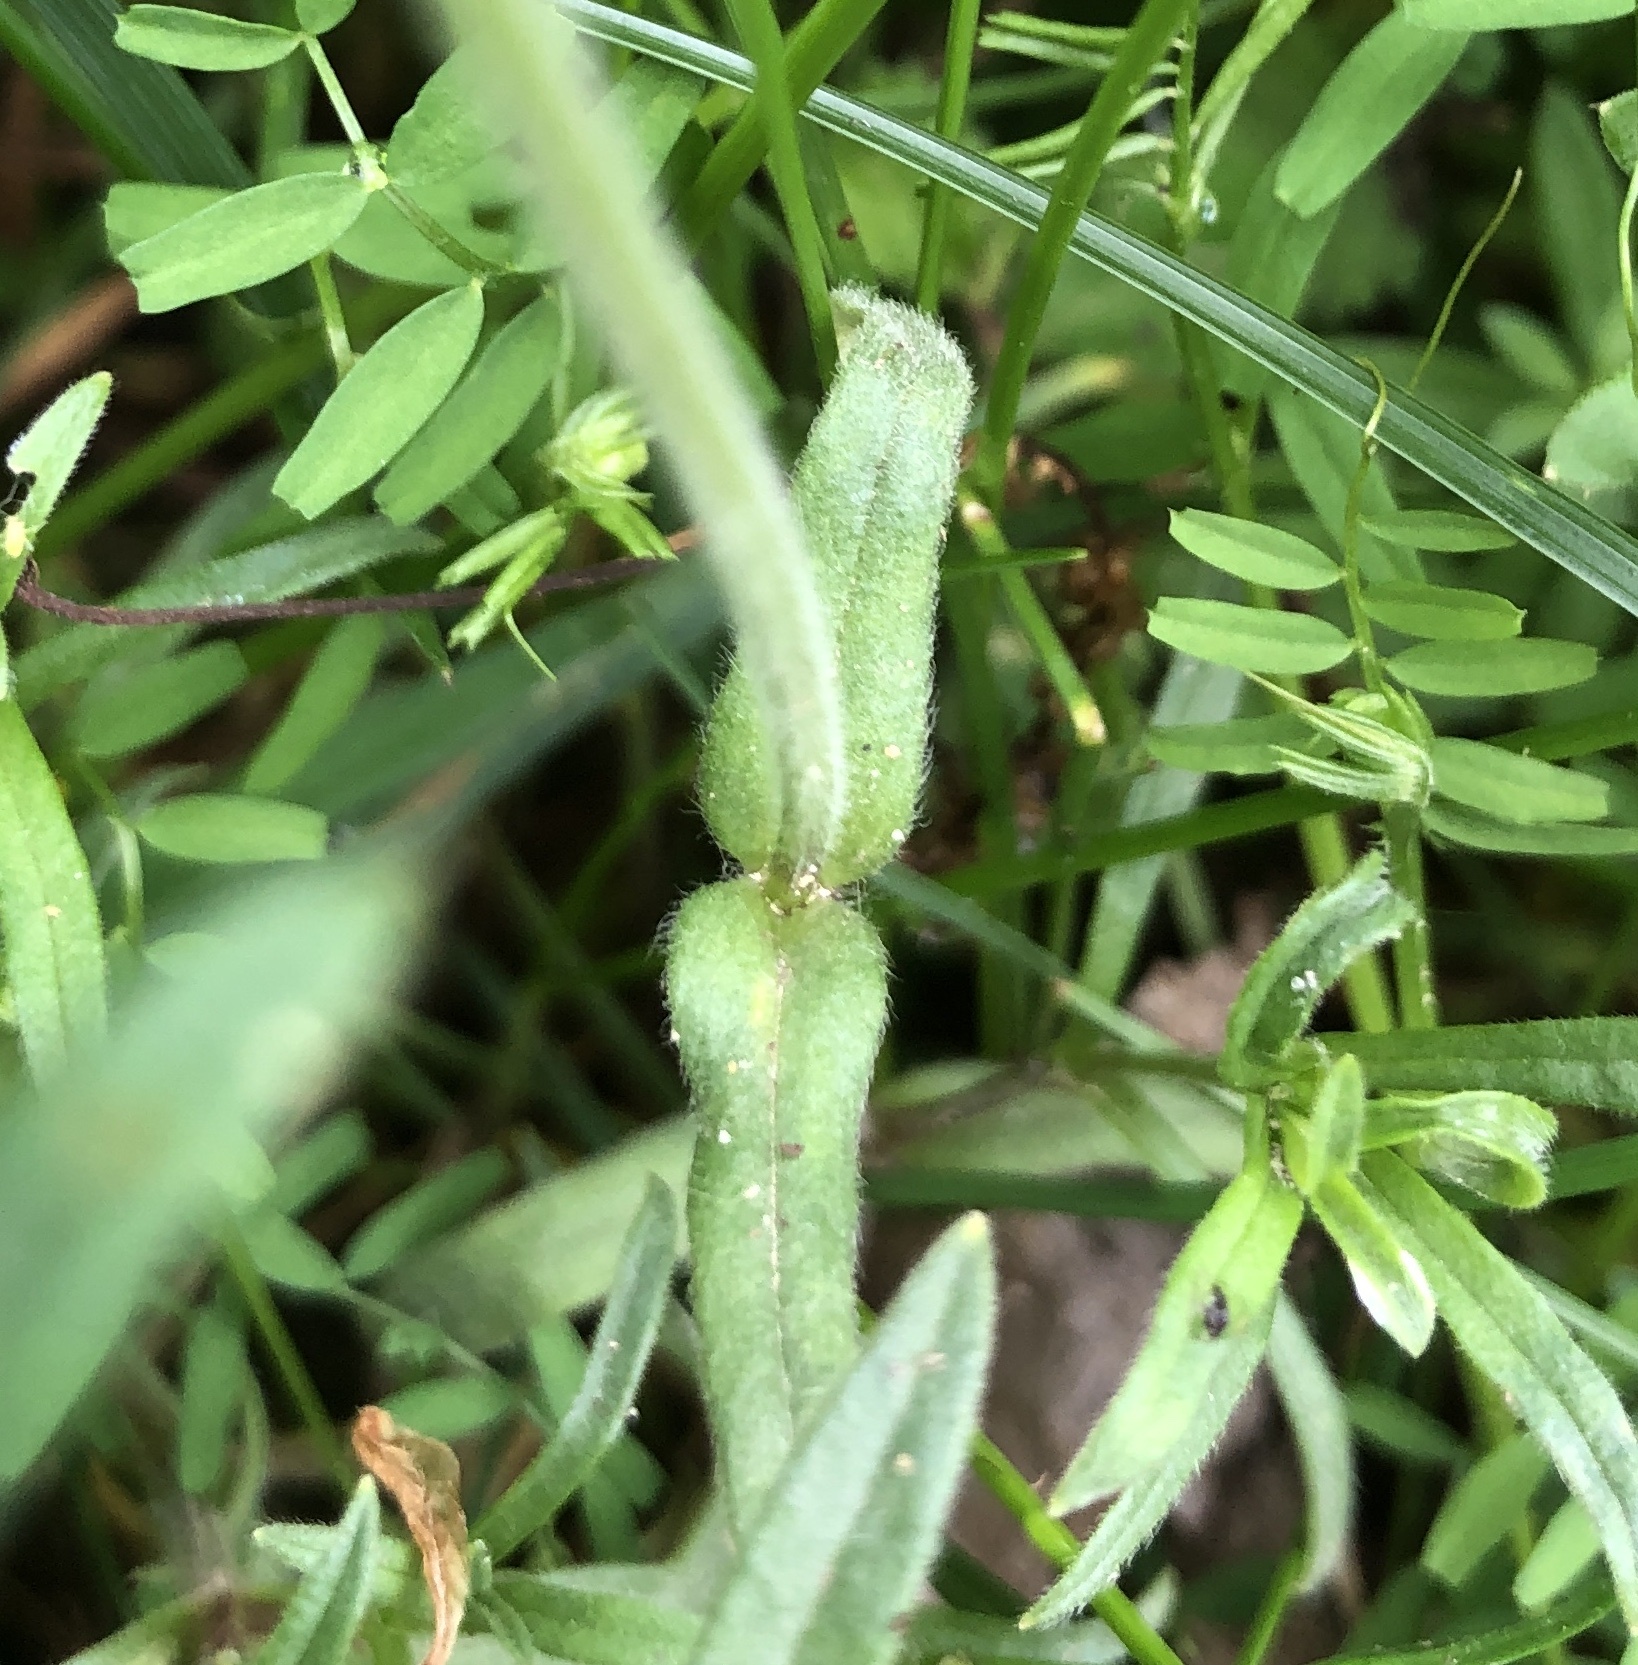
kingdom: Plantae
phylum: Tracheophyta
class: Magnoliopsida
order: Caryophyllales
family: Caryophyllaceae
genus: Cerastium
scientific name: Cerastium arvense
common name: Field mouse-ear
